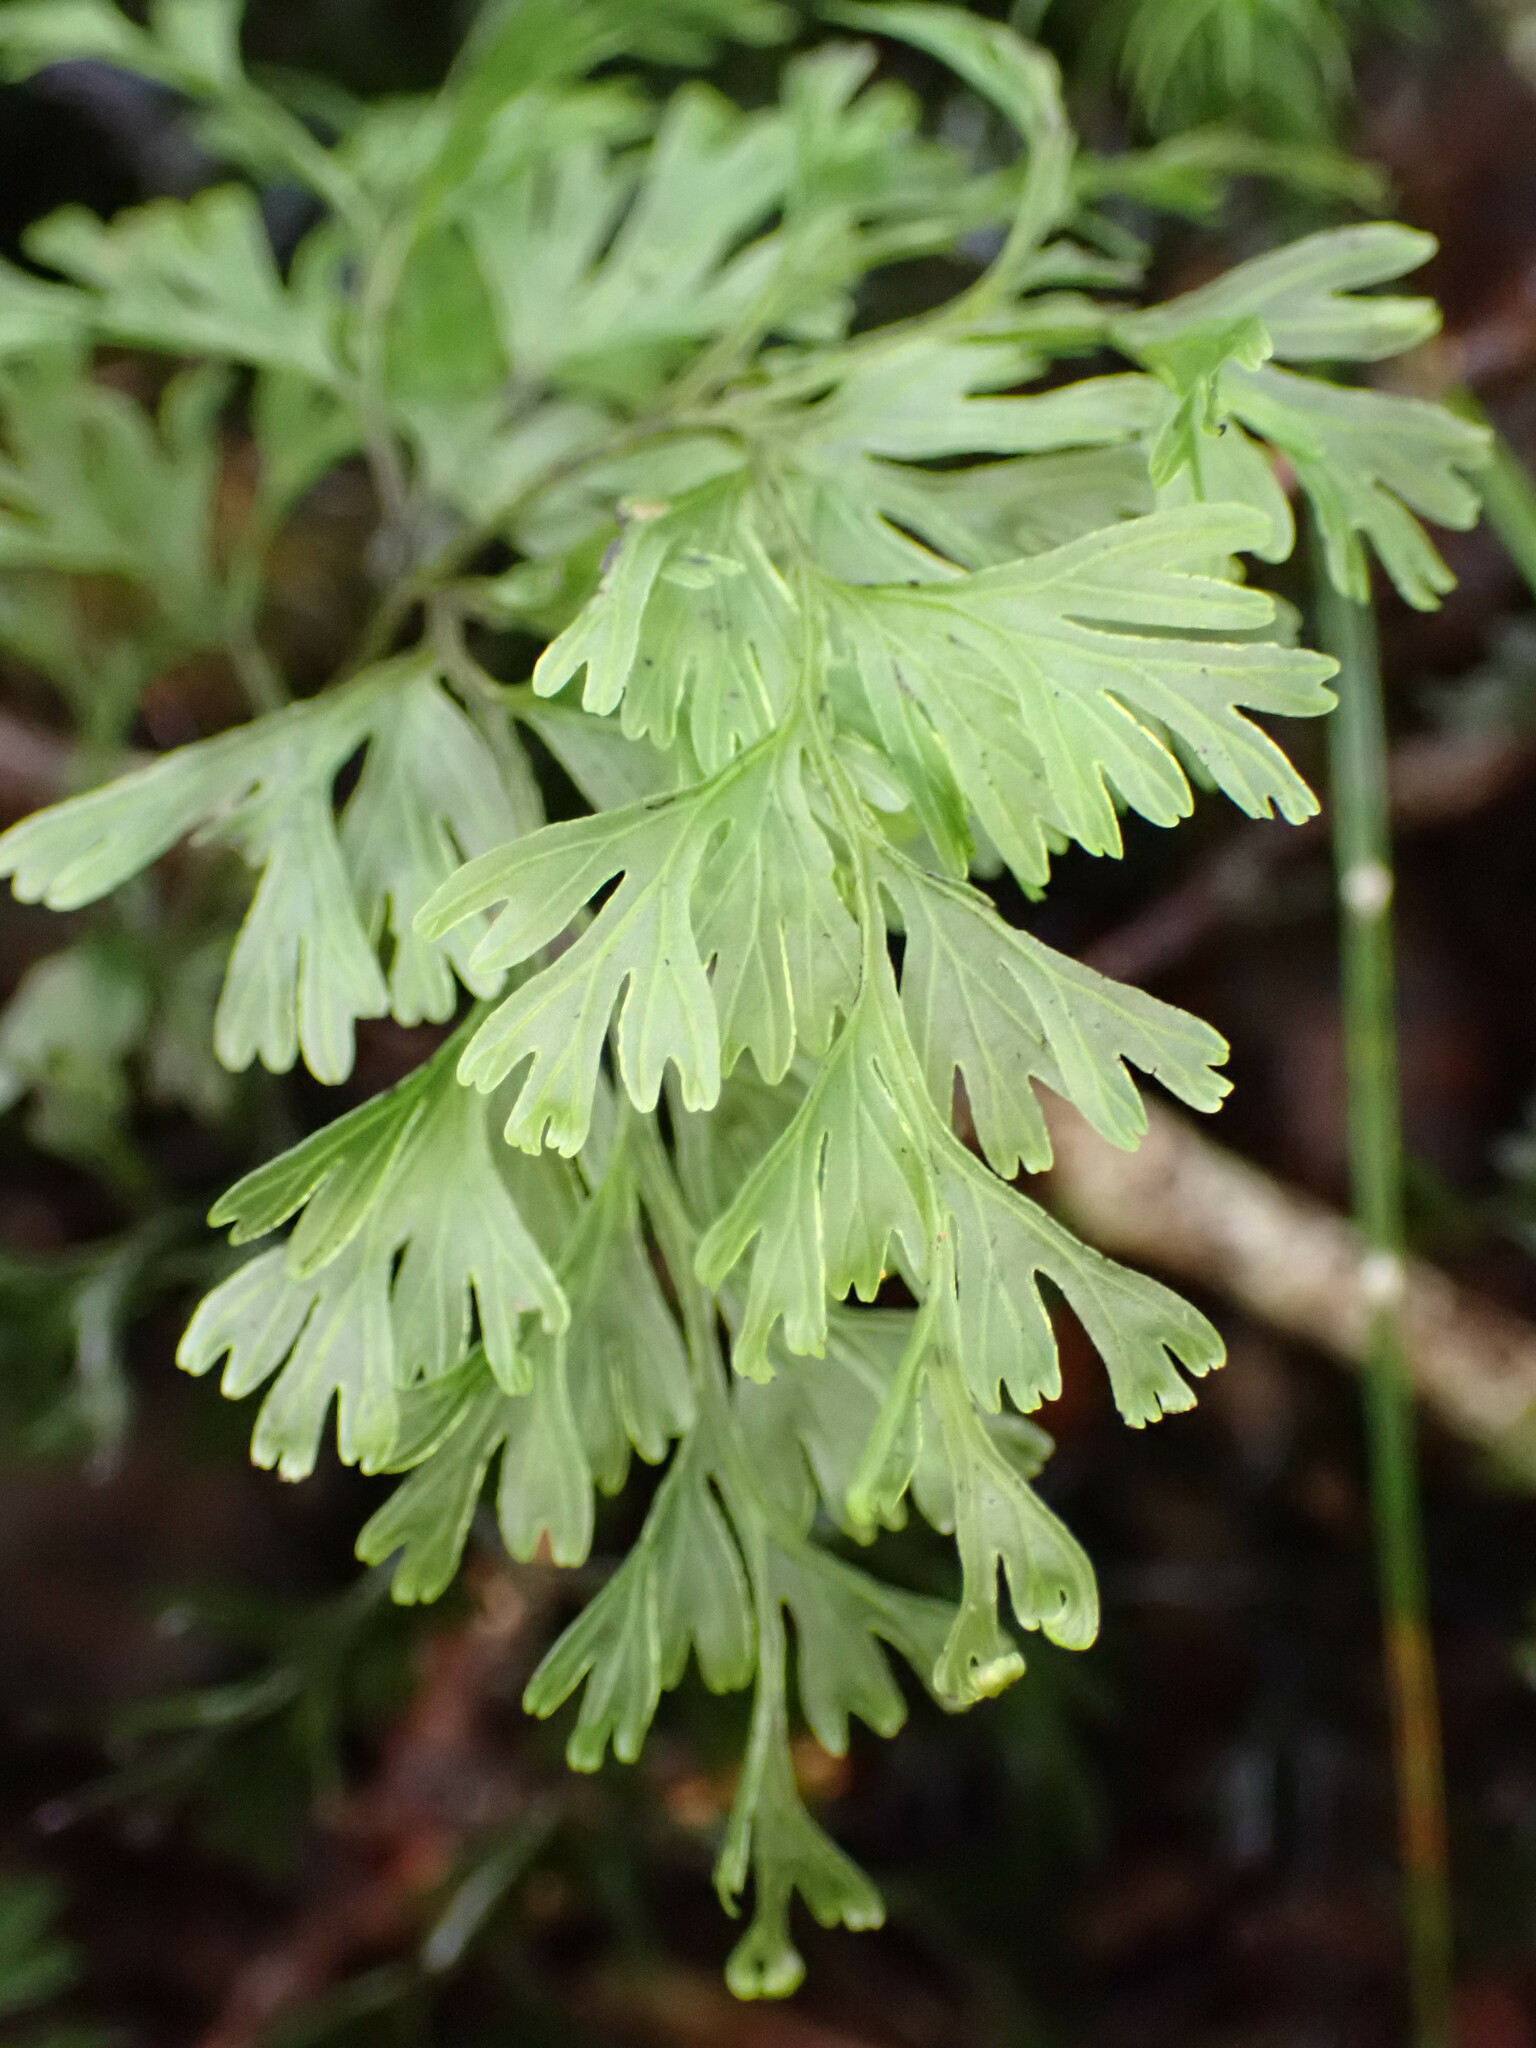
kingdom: Plantae
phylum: Tracheophyta
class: Polypodiopsida
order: Hymenophyllales
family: Hymenophyllaceae
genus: Hymenophyllum
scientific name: Hymenophyllum demissum
